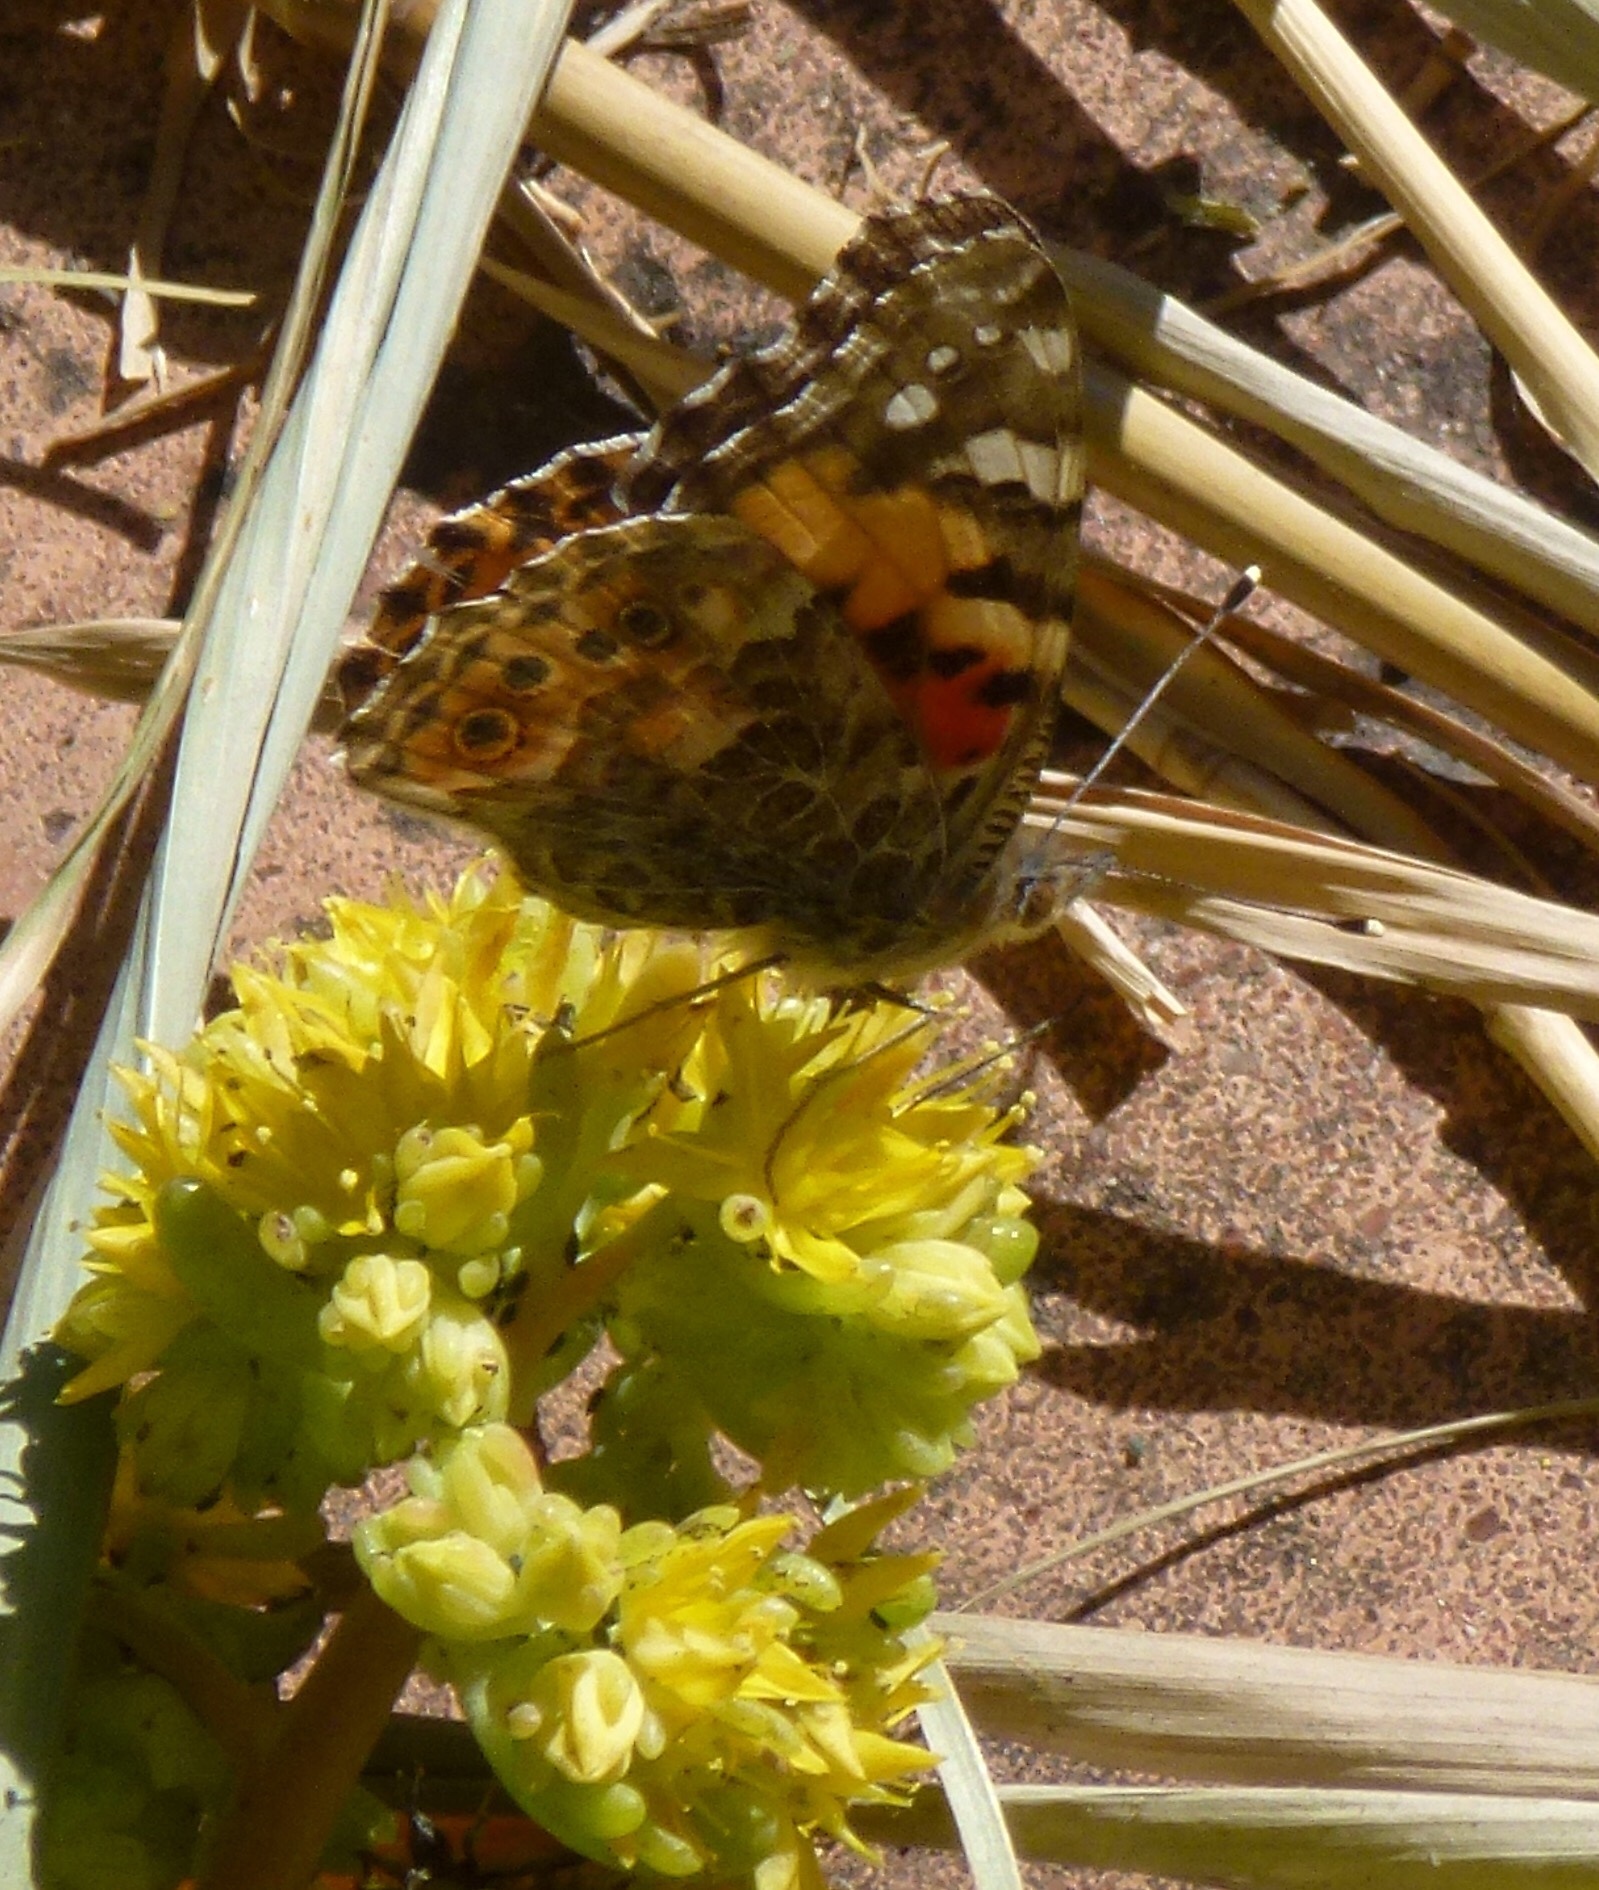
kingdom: Animalia
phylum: Arthropoda
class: Insecta
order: Lepidoptera
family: Nymphalidae
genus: Vanessa
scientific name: Vanessa cardui
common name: Painted lady
